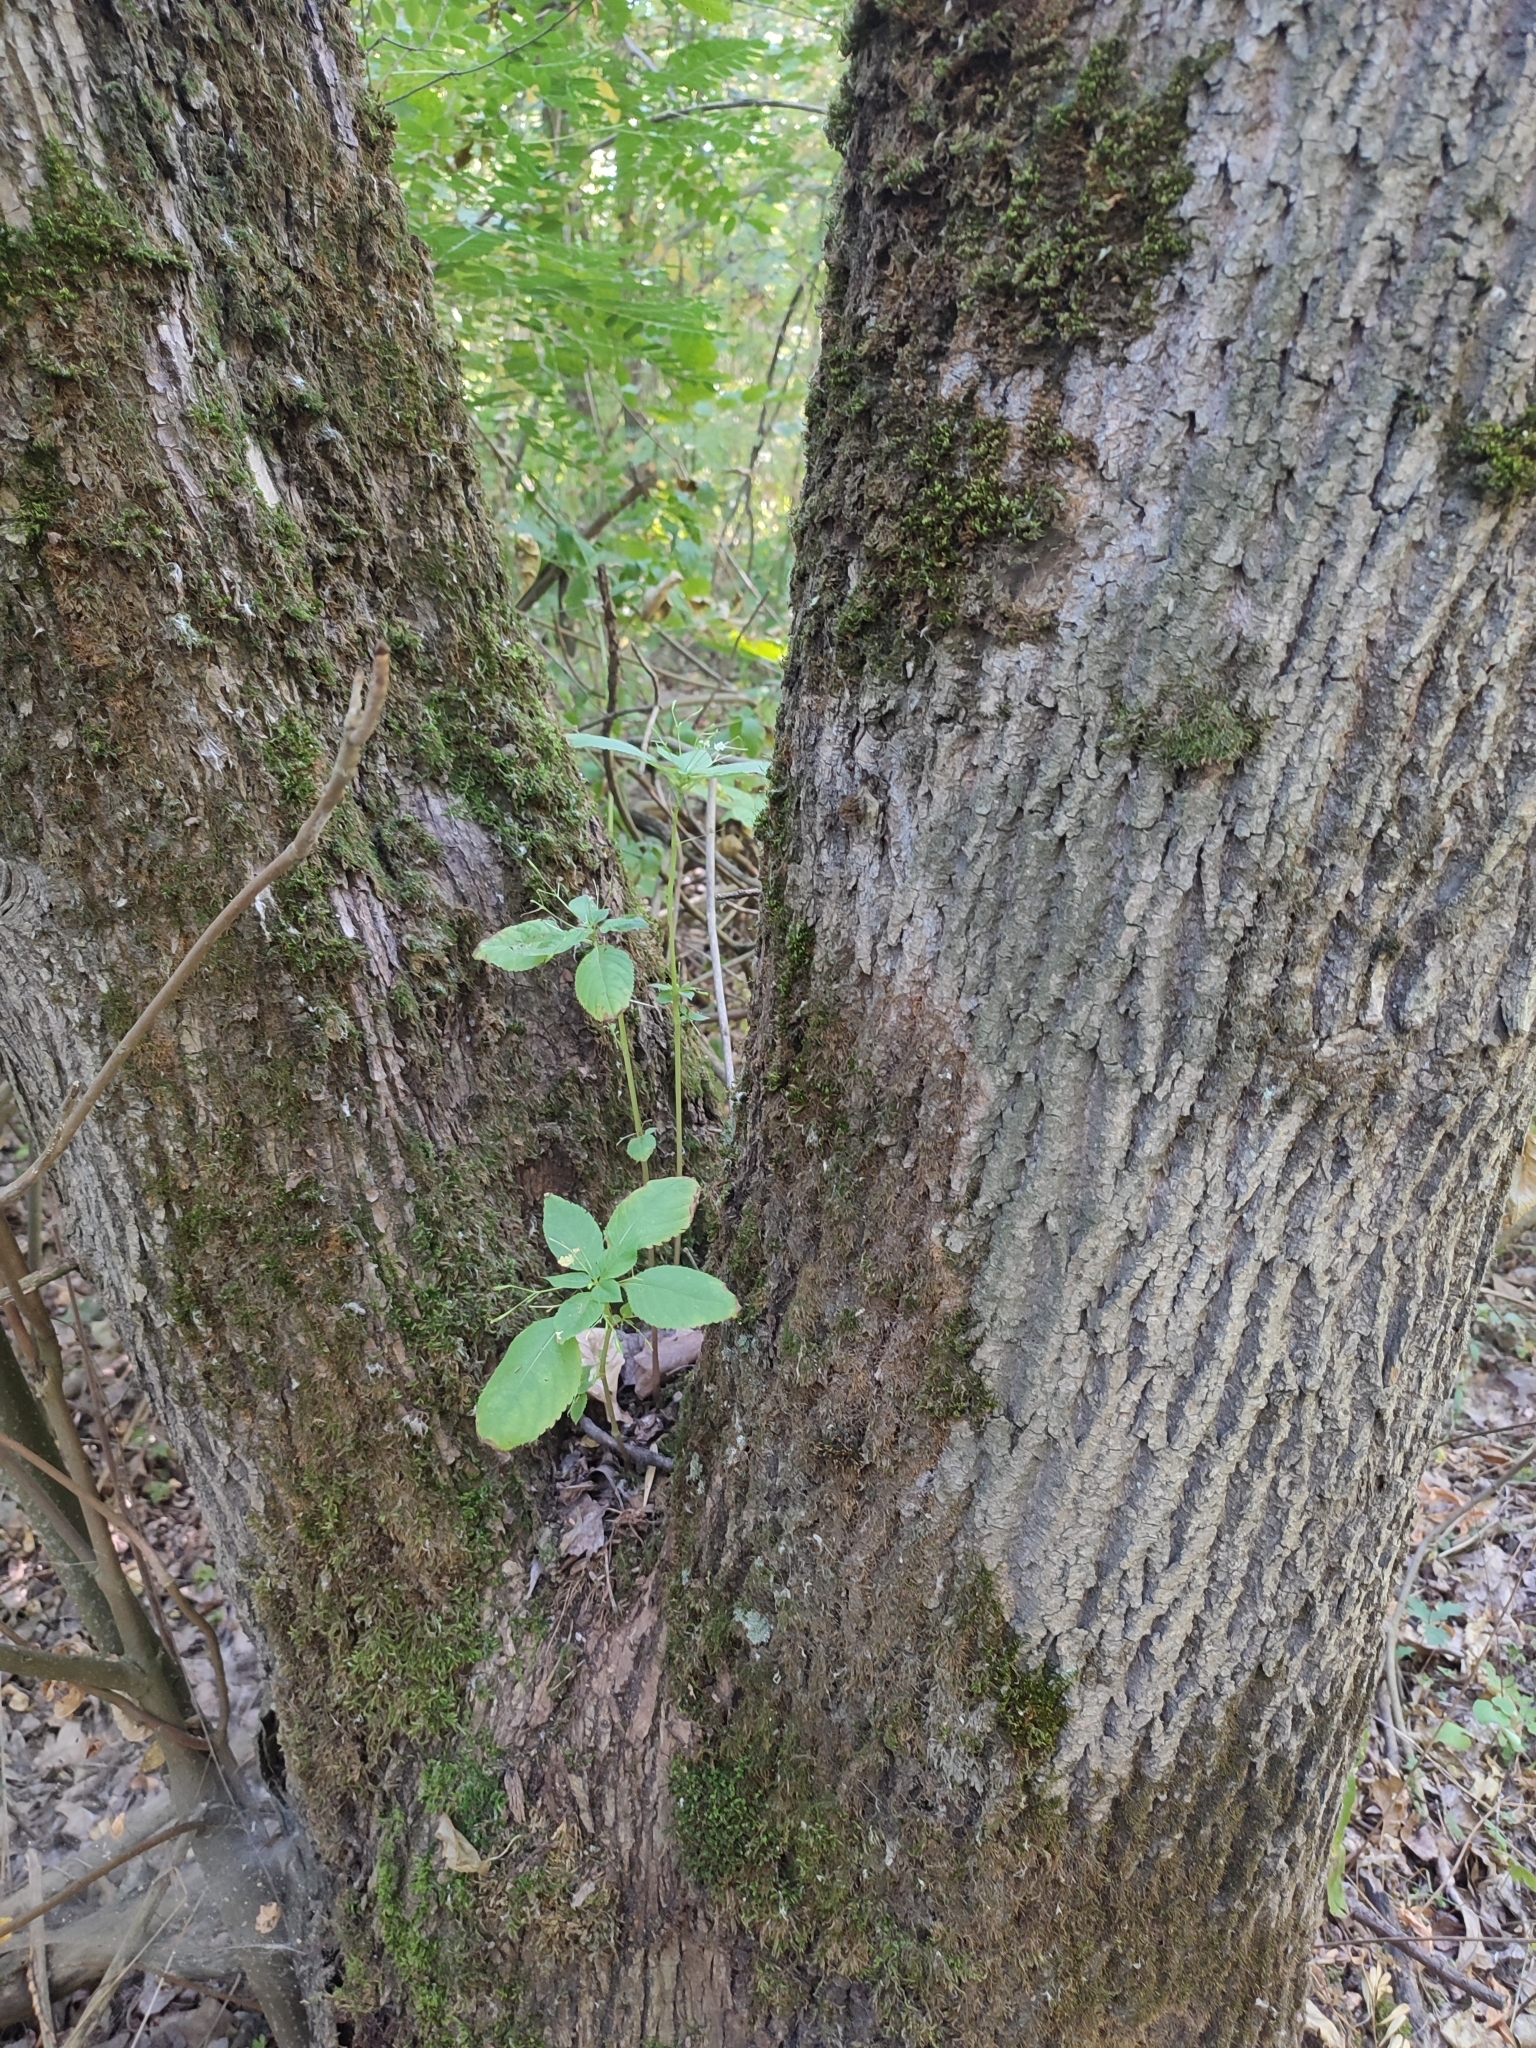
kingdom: Plantae
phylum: Tracheophyta
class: Magnoliopsida
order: Ericales
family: Balsaminaceae
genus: Impatiens
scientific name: Impatiens parviflora
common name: Small balsam
